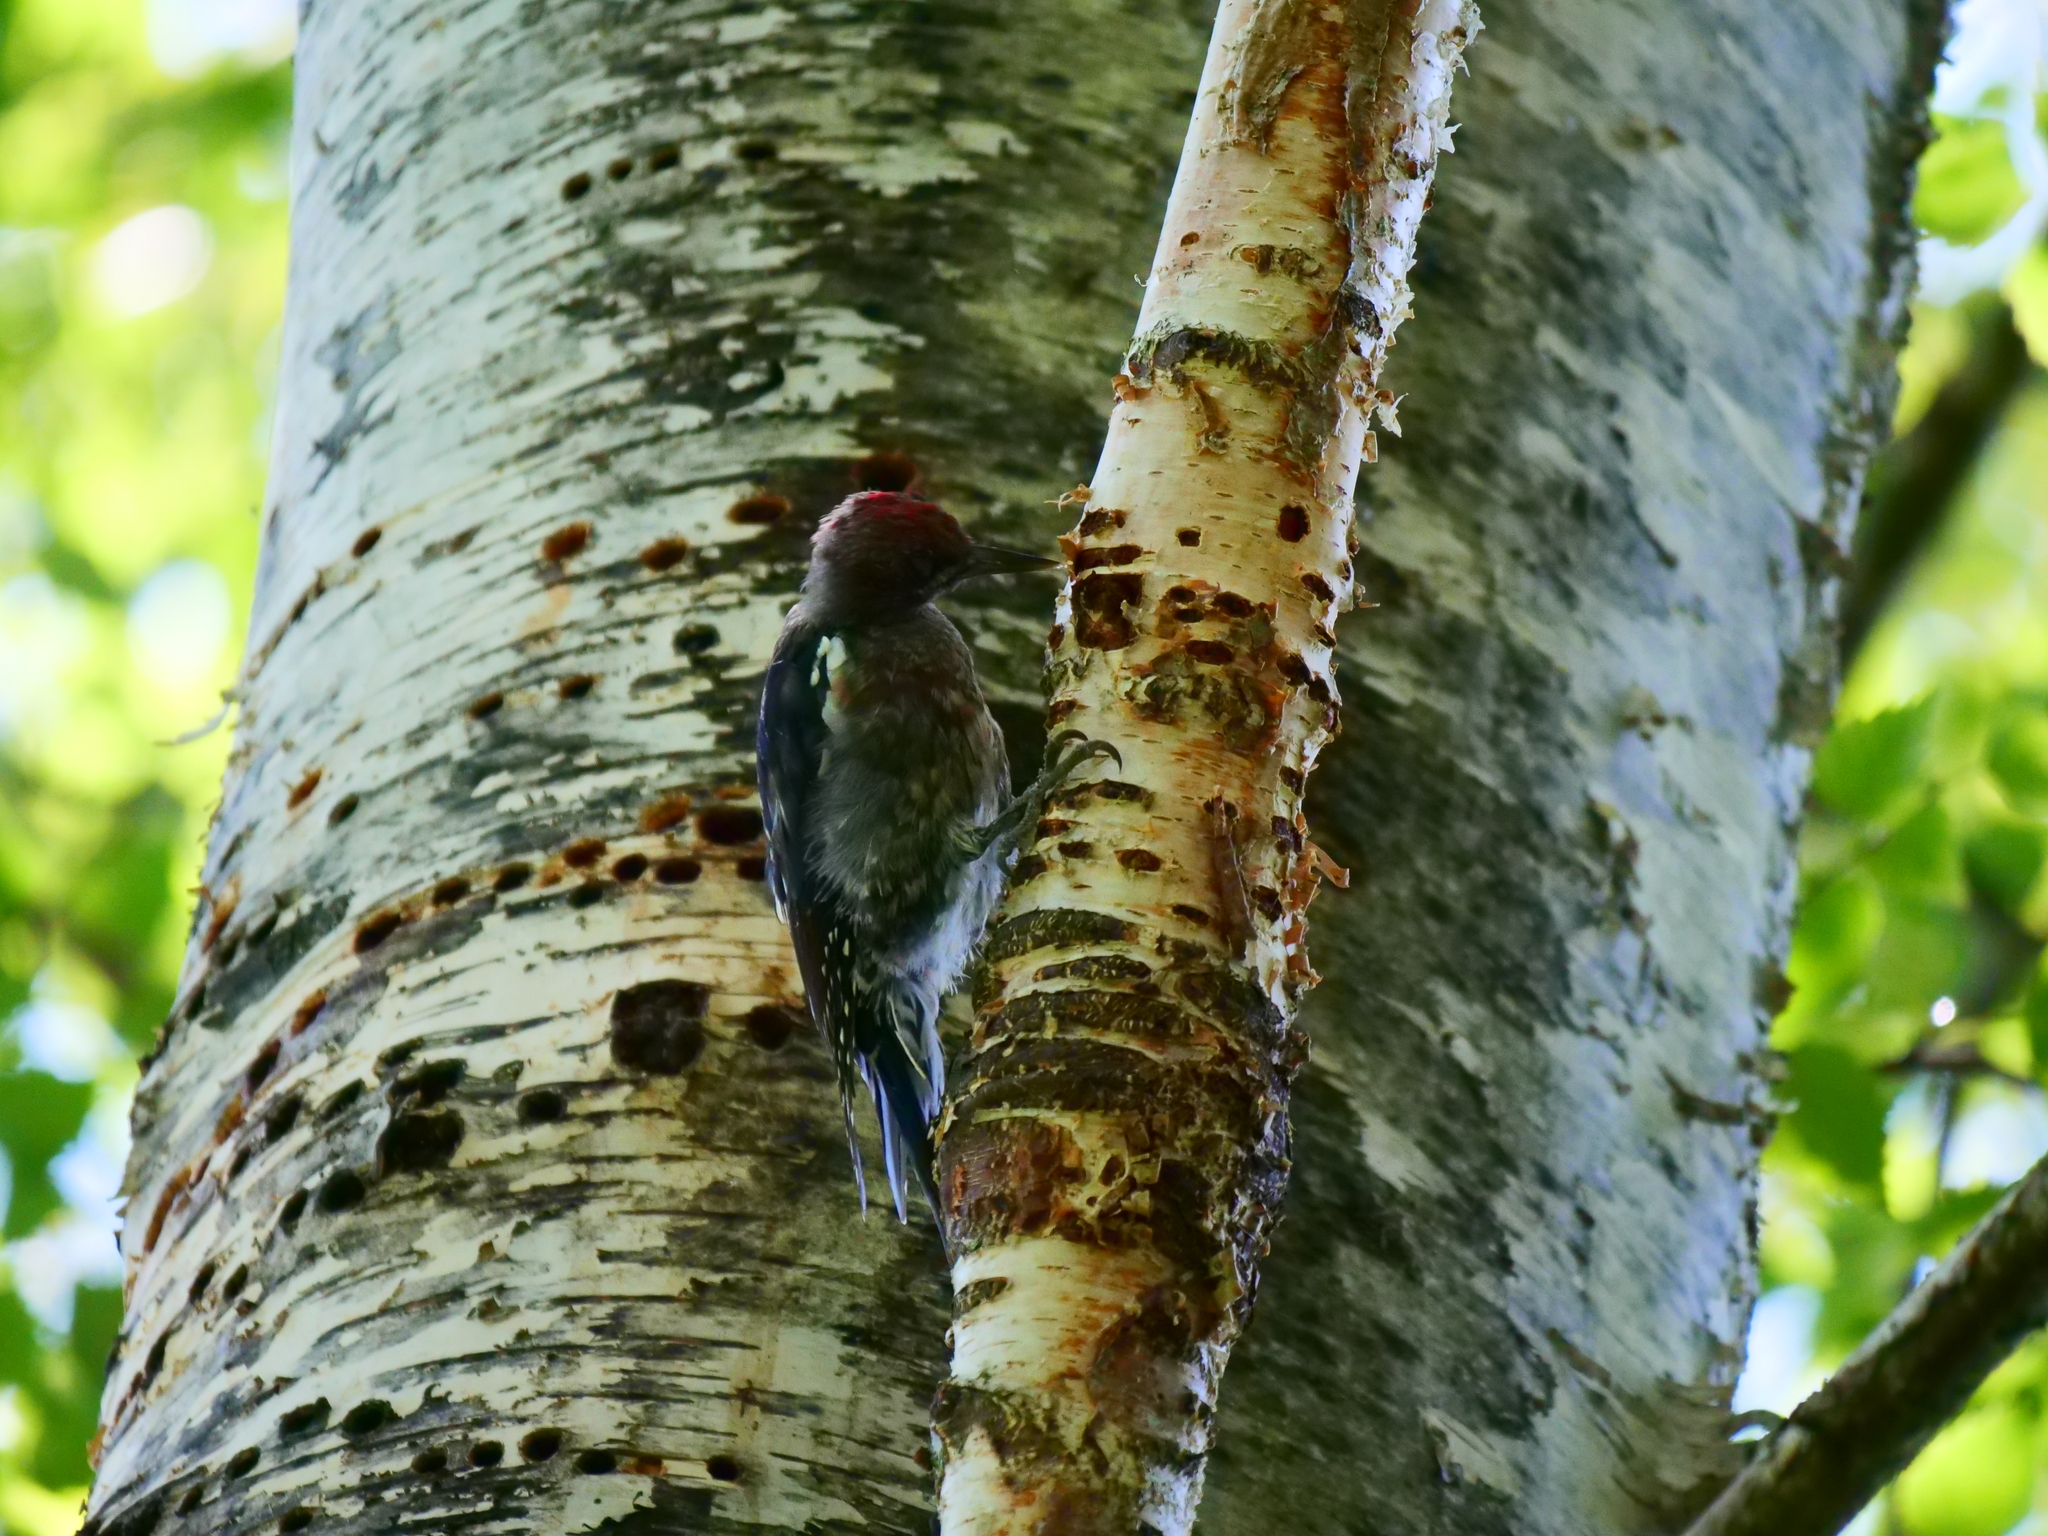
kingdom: Animalia
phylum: Chordata
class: Aves
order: Piciformes
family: Picidae
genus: Sphyrapicus
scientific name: Sphyrapicus ruber
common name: Red-breasted sapsucker
